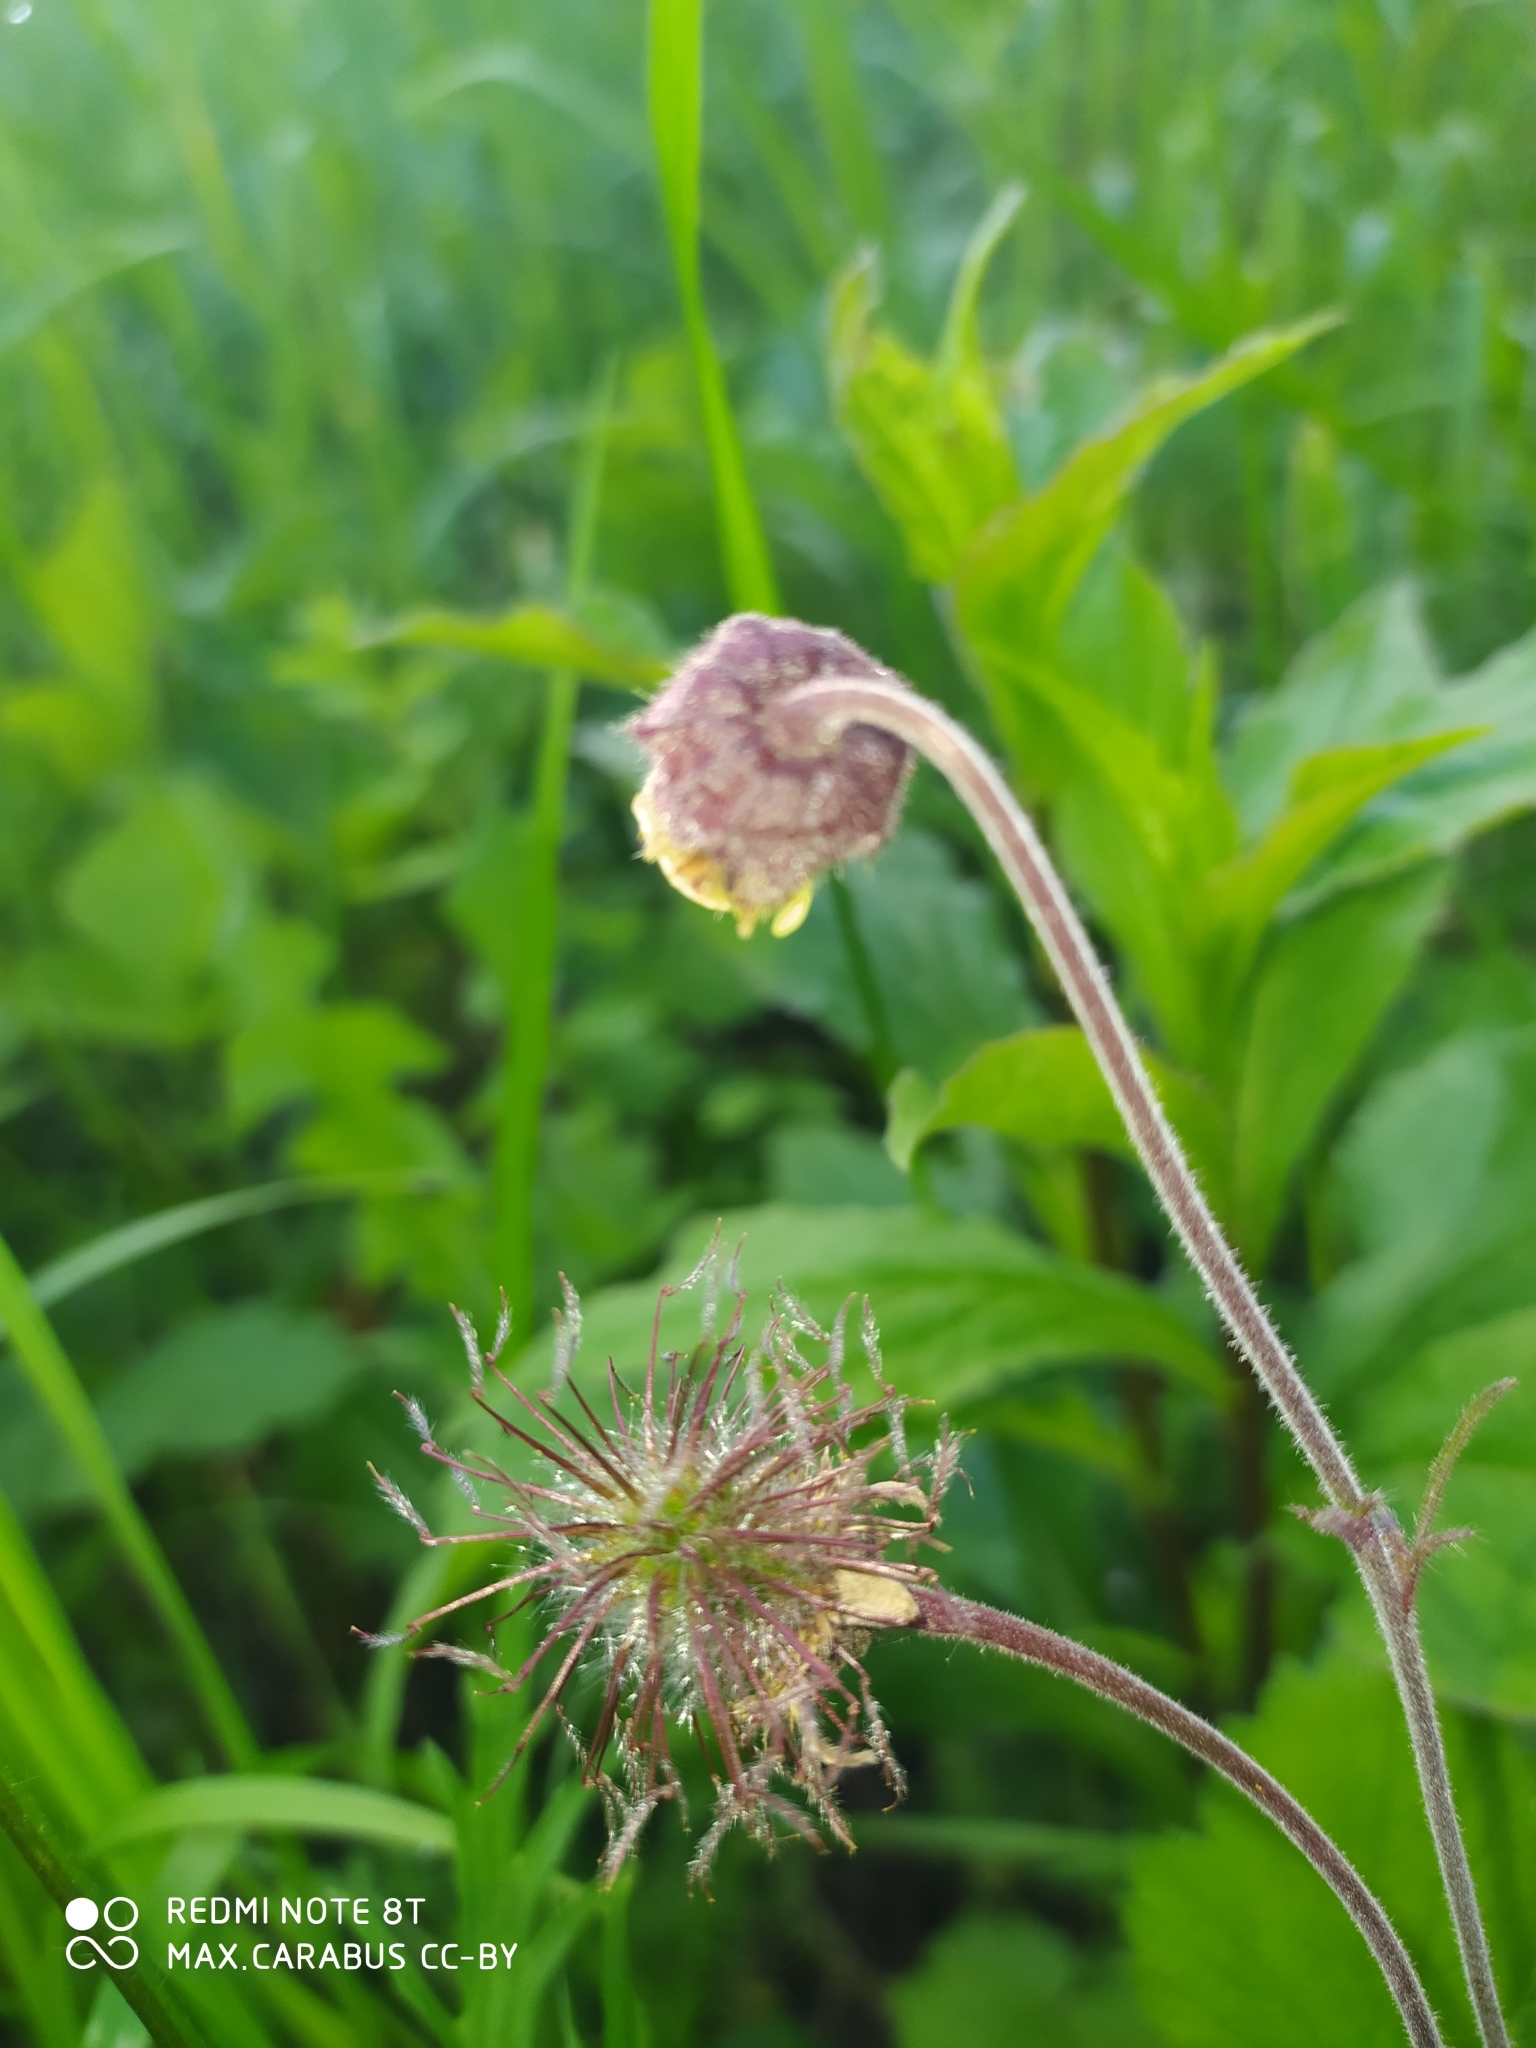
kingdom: Plantae
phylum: Tracheophyta
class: Magnoliopsida
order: Rosales
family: Rosaceae
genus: Geum
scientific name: Geum rivale
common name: Water avens
